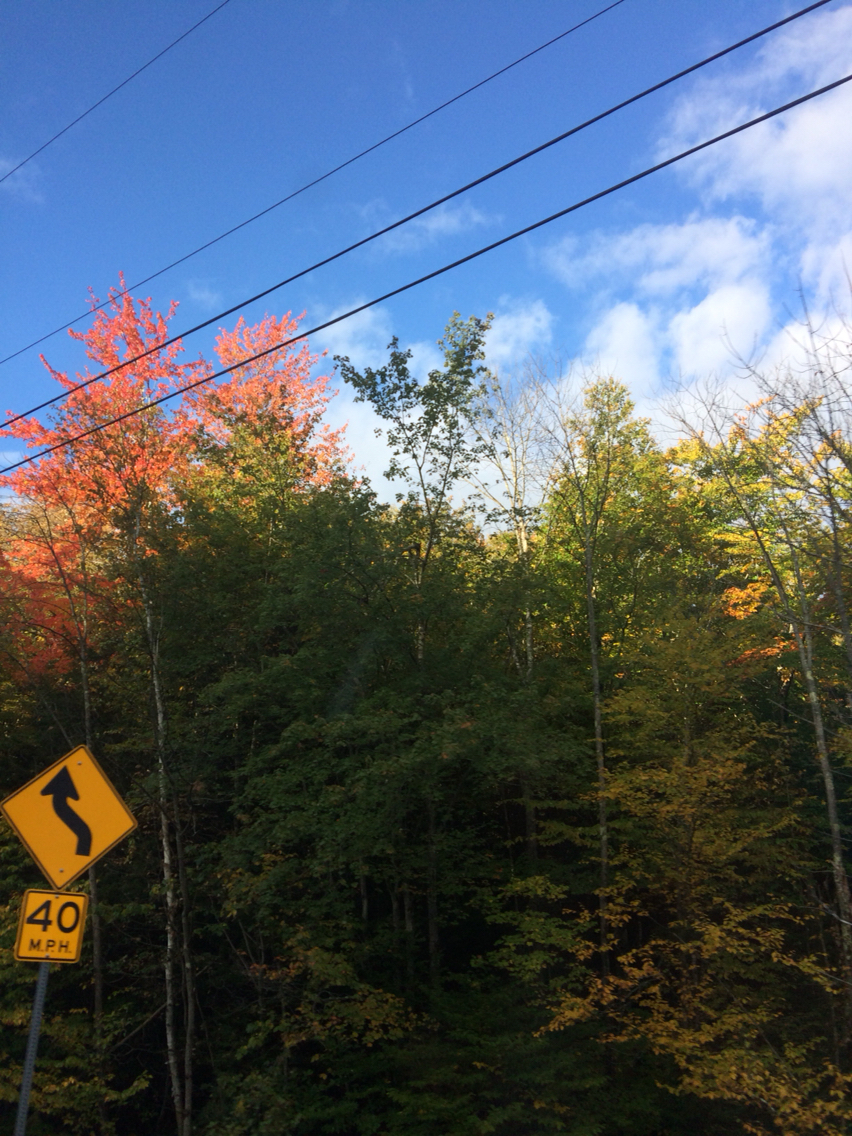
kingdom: Plantae
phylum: Tracheophyta
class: Magnoliopsida
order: Sapindales
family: Sapindaceae
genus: Acer
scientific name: Acer rubrum
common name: Red maple
